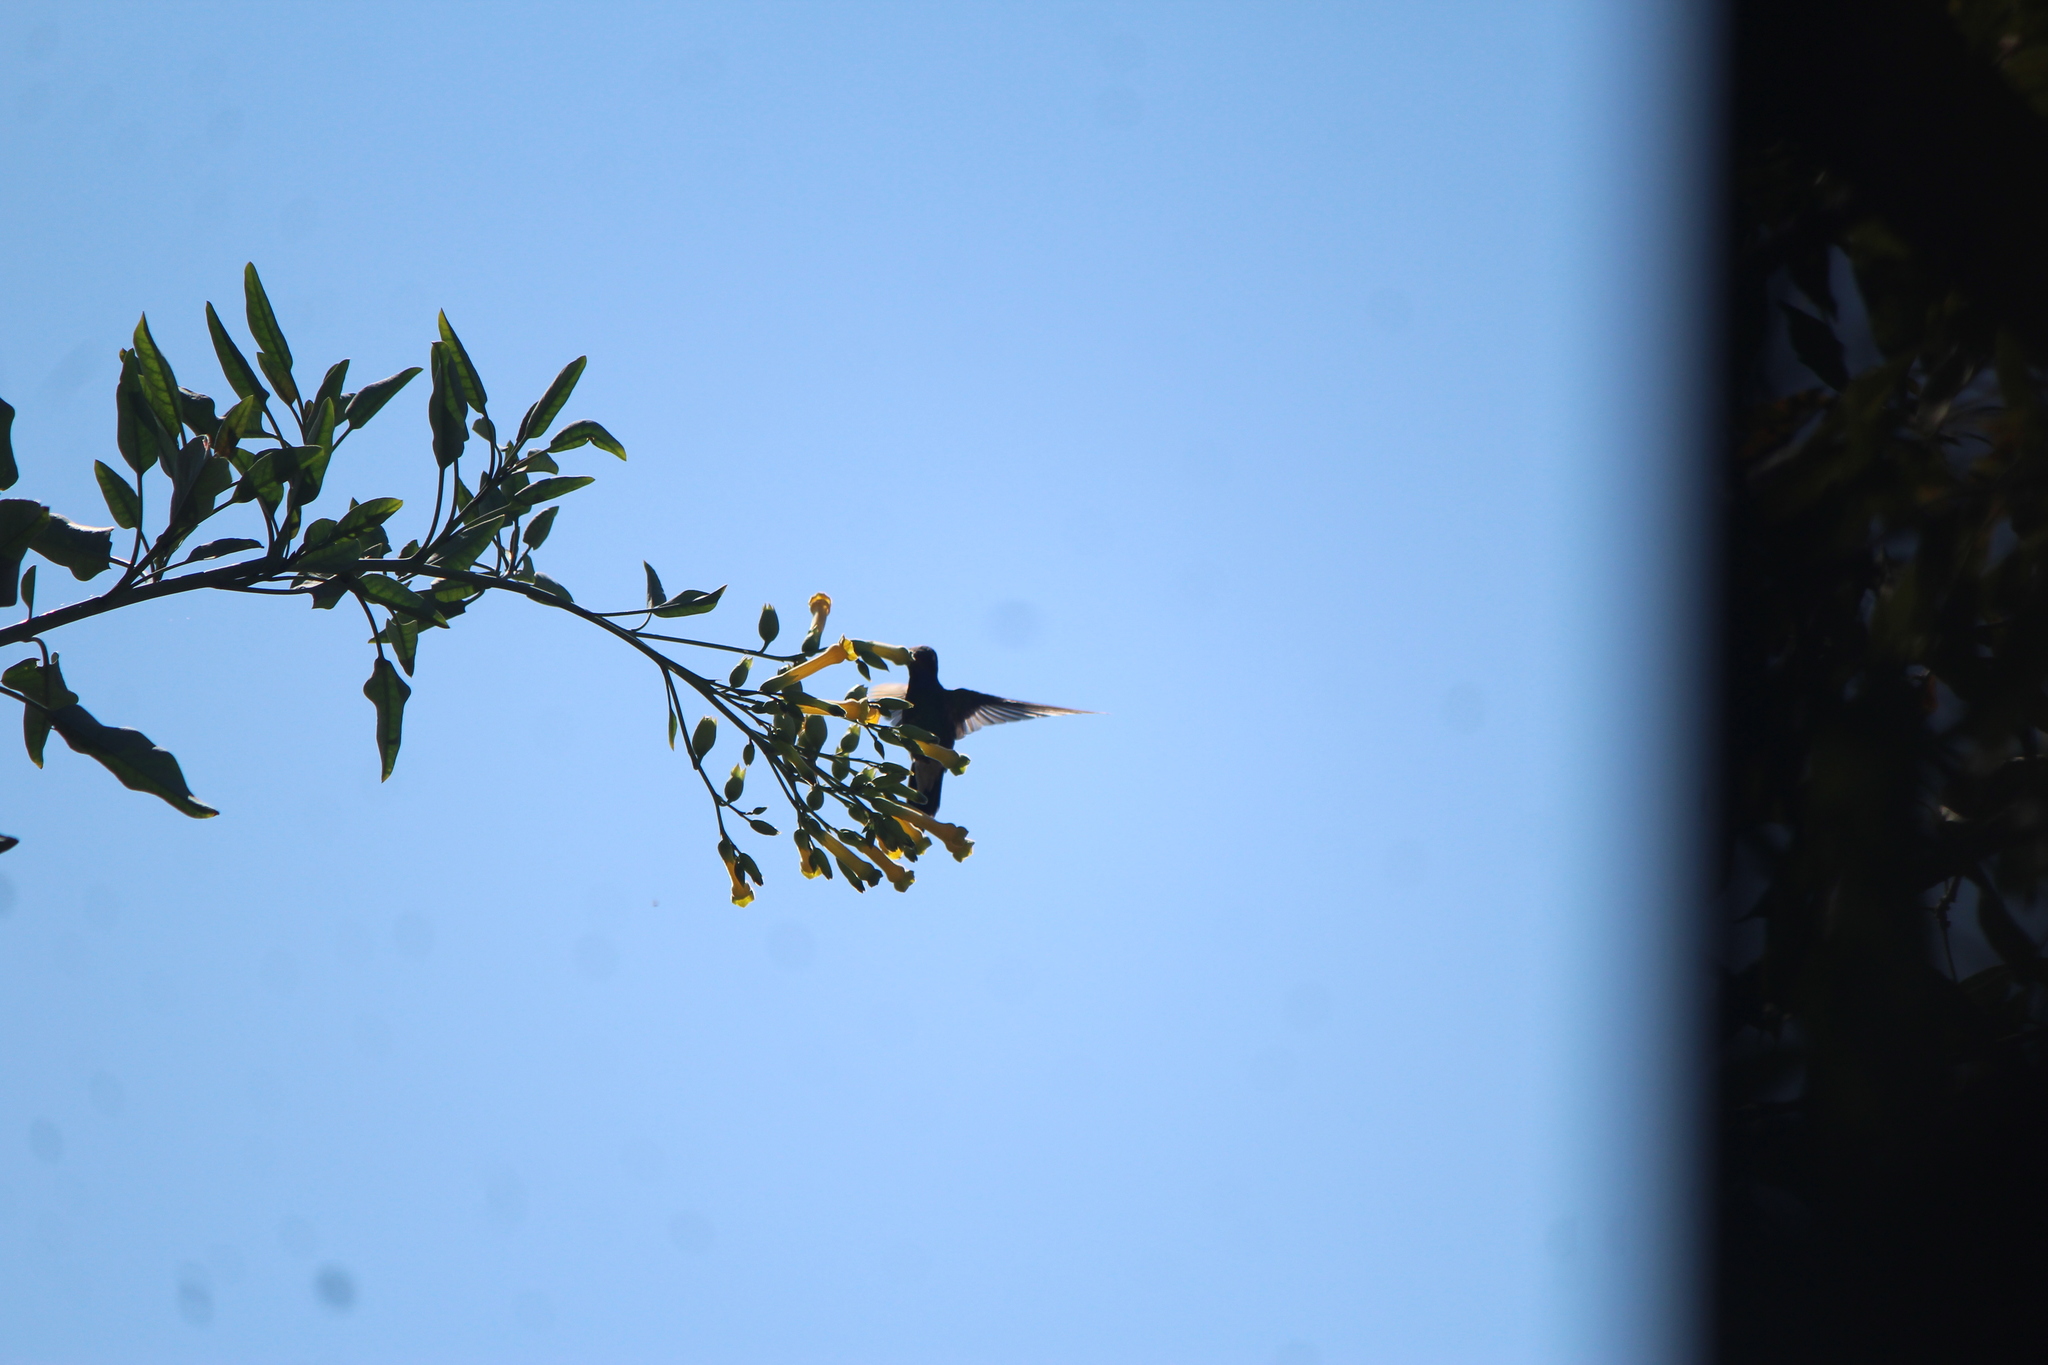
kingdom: Animalia
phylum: Chordata
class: Aves
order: Apodiformes
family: Trochilidae
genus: Cynanthus
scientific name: Cynanthus latirostris
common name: Broad-billed hummingbird
